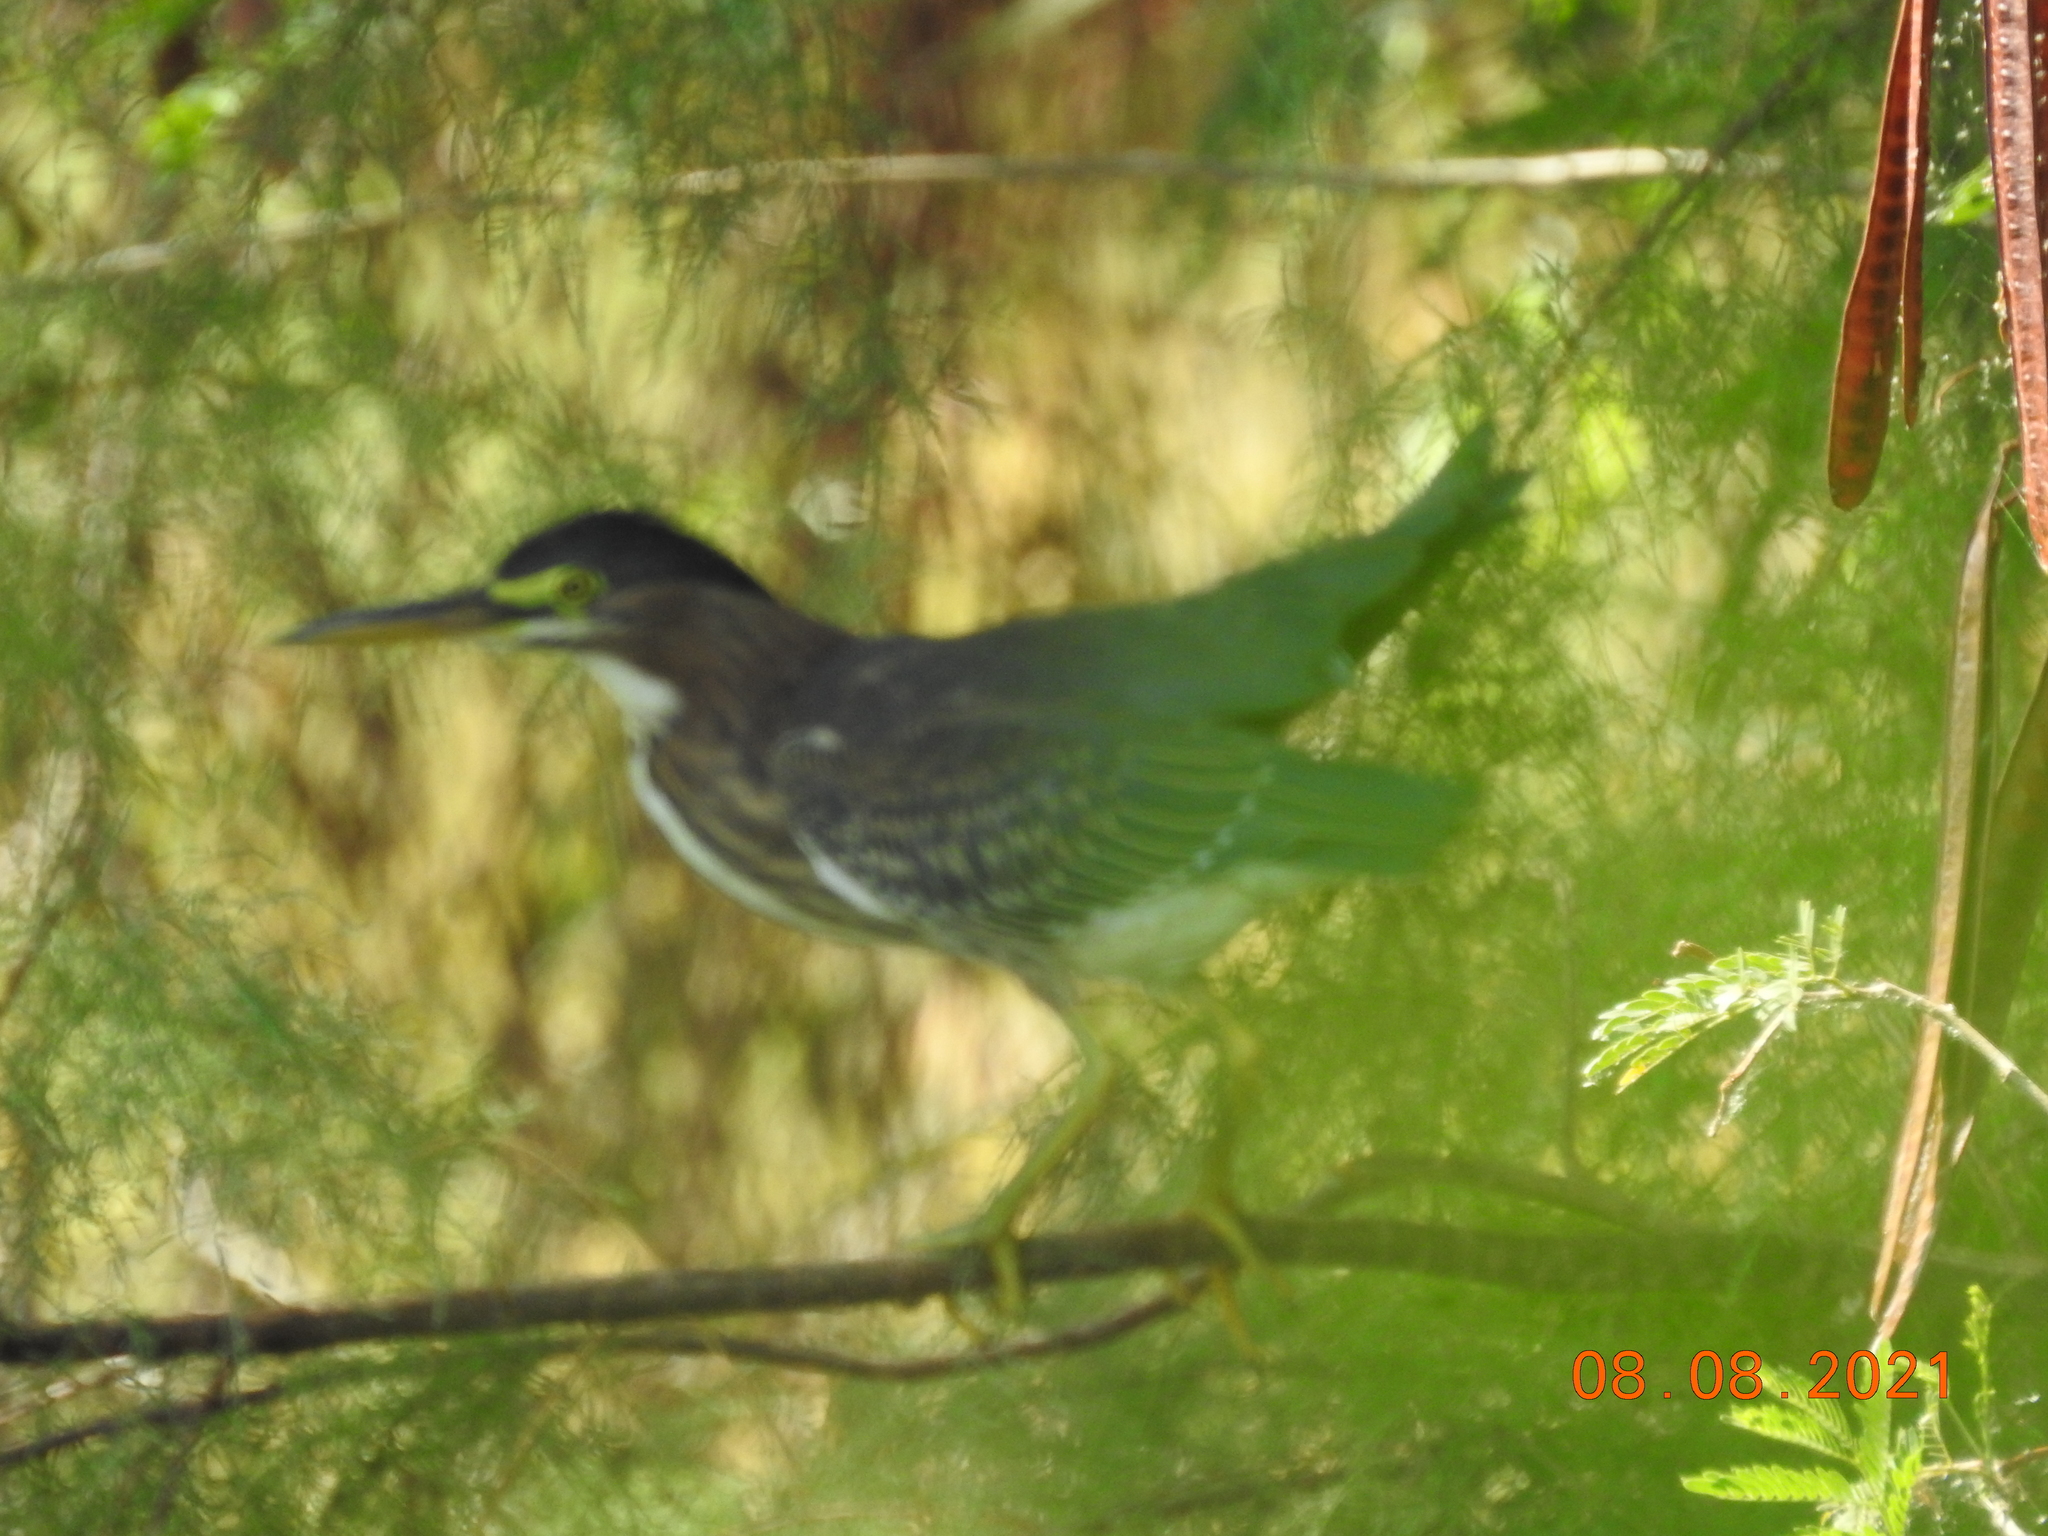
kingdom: Animalia
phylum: Chordata
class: Aves
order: Pelecaniformes
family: Ardeidae
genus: Butorides
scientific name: Butorides virescens
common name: Green heron
